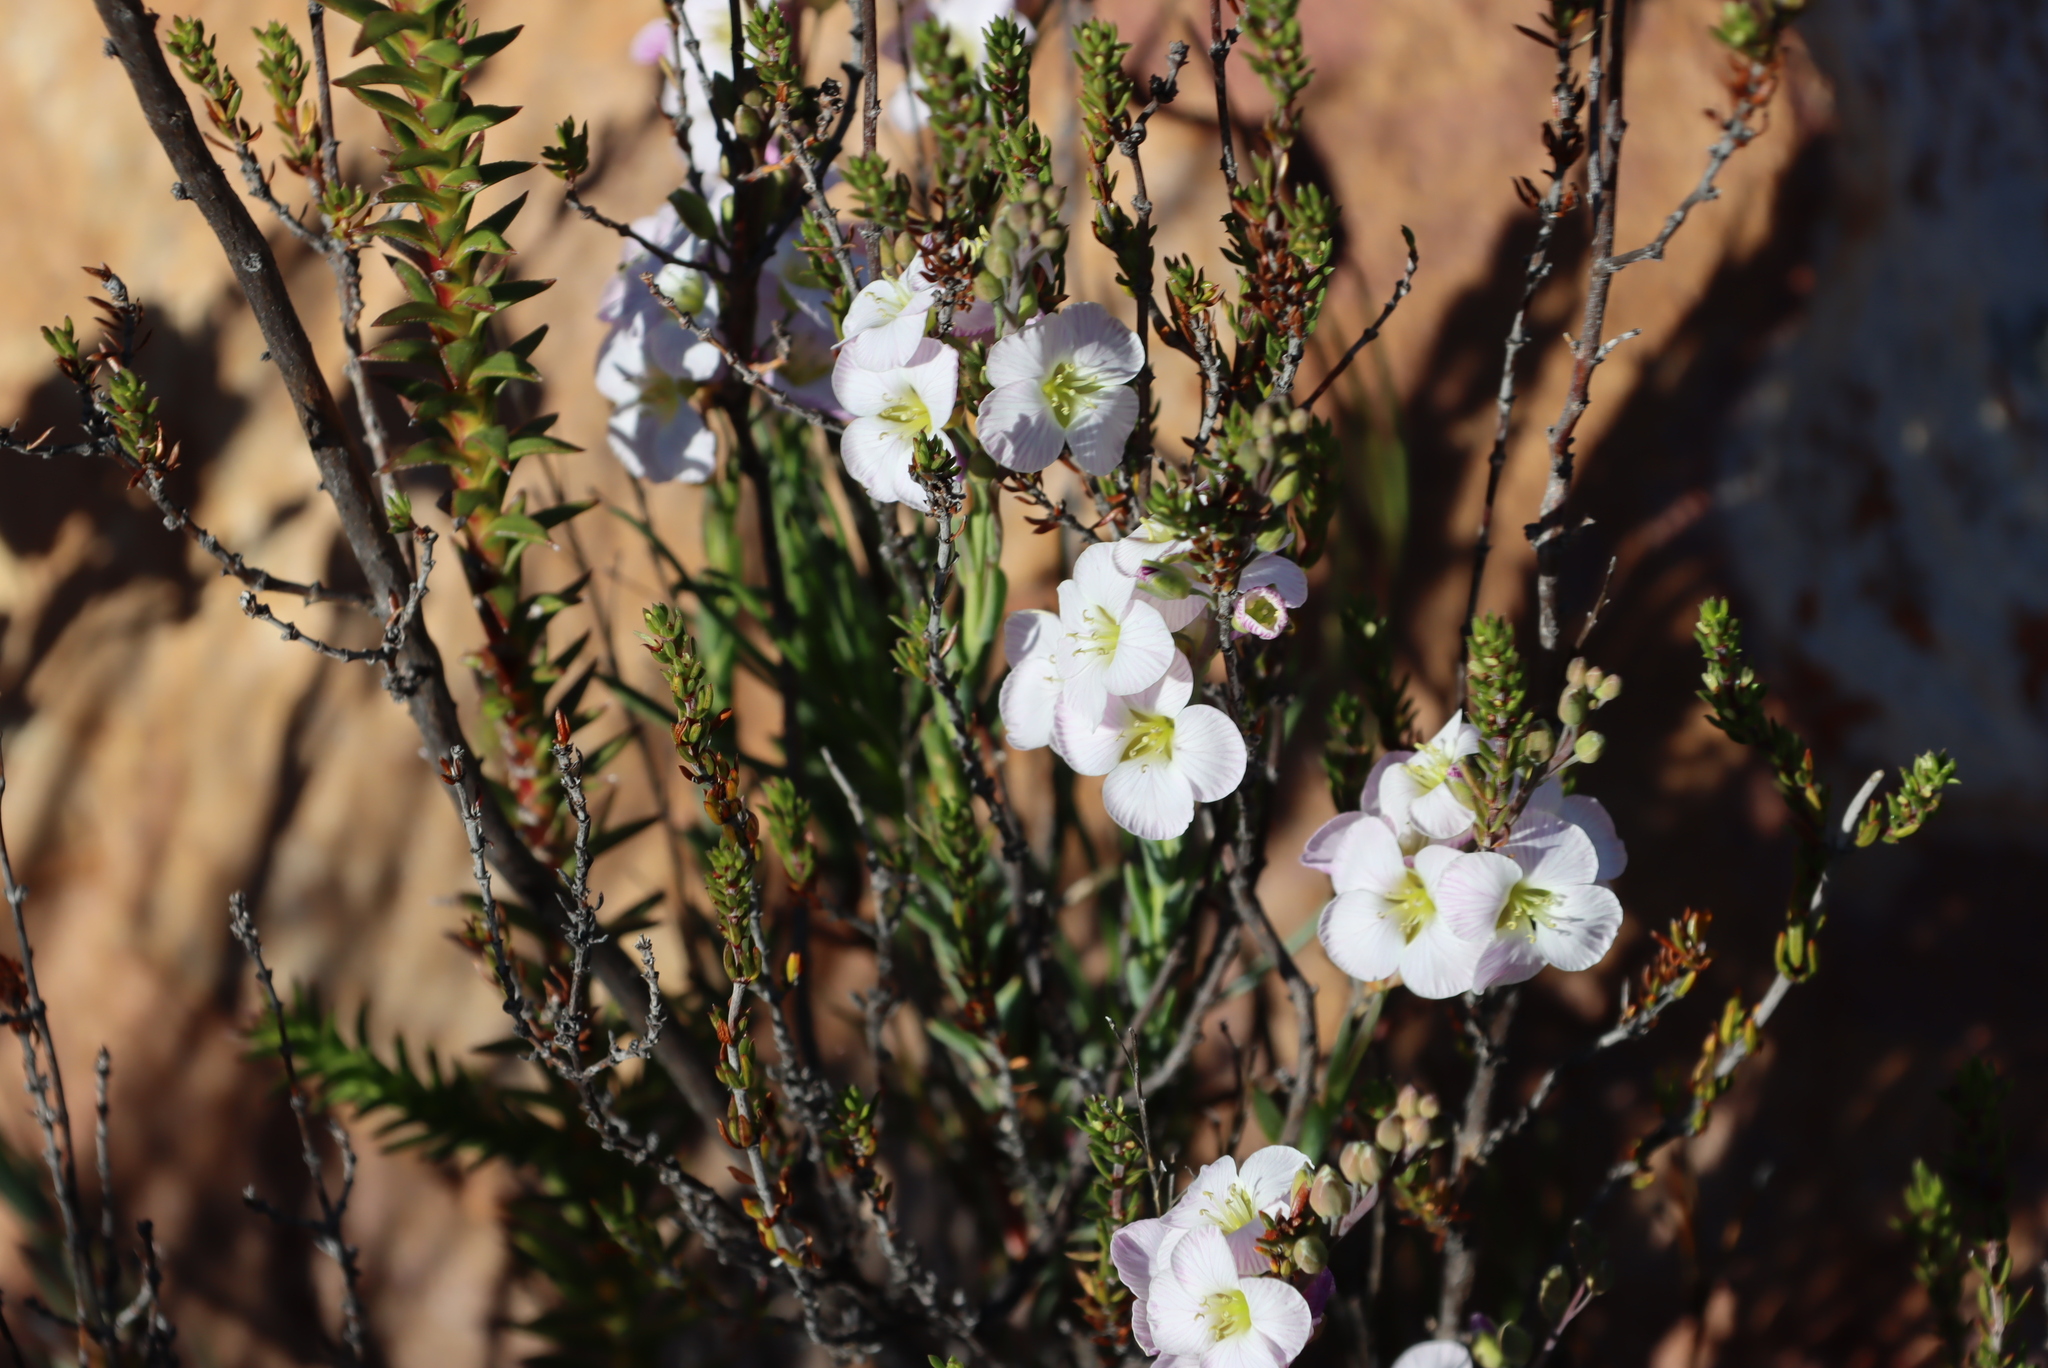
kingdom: Plantae
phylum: Tracheophyta
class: Magnoliopsida
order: Brassicales
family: Brassicaceae
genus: Heliophila
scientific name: Heliophila glauca
